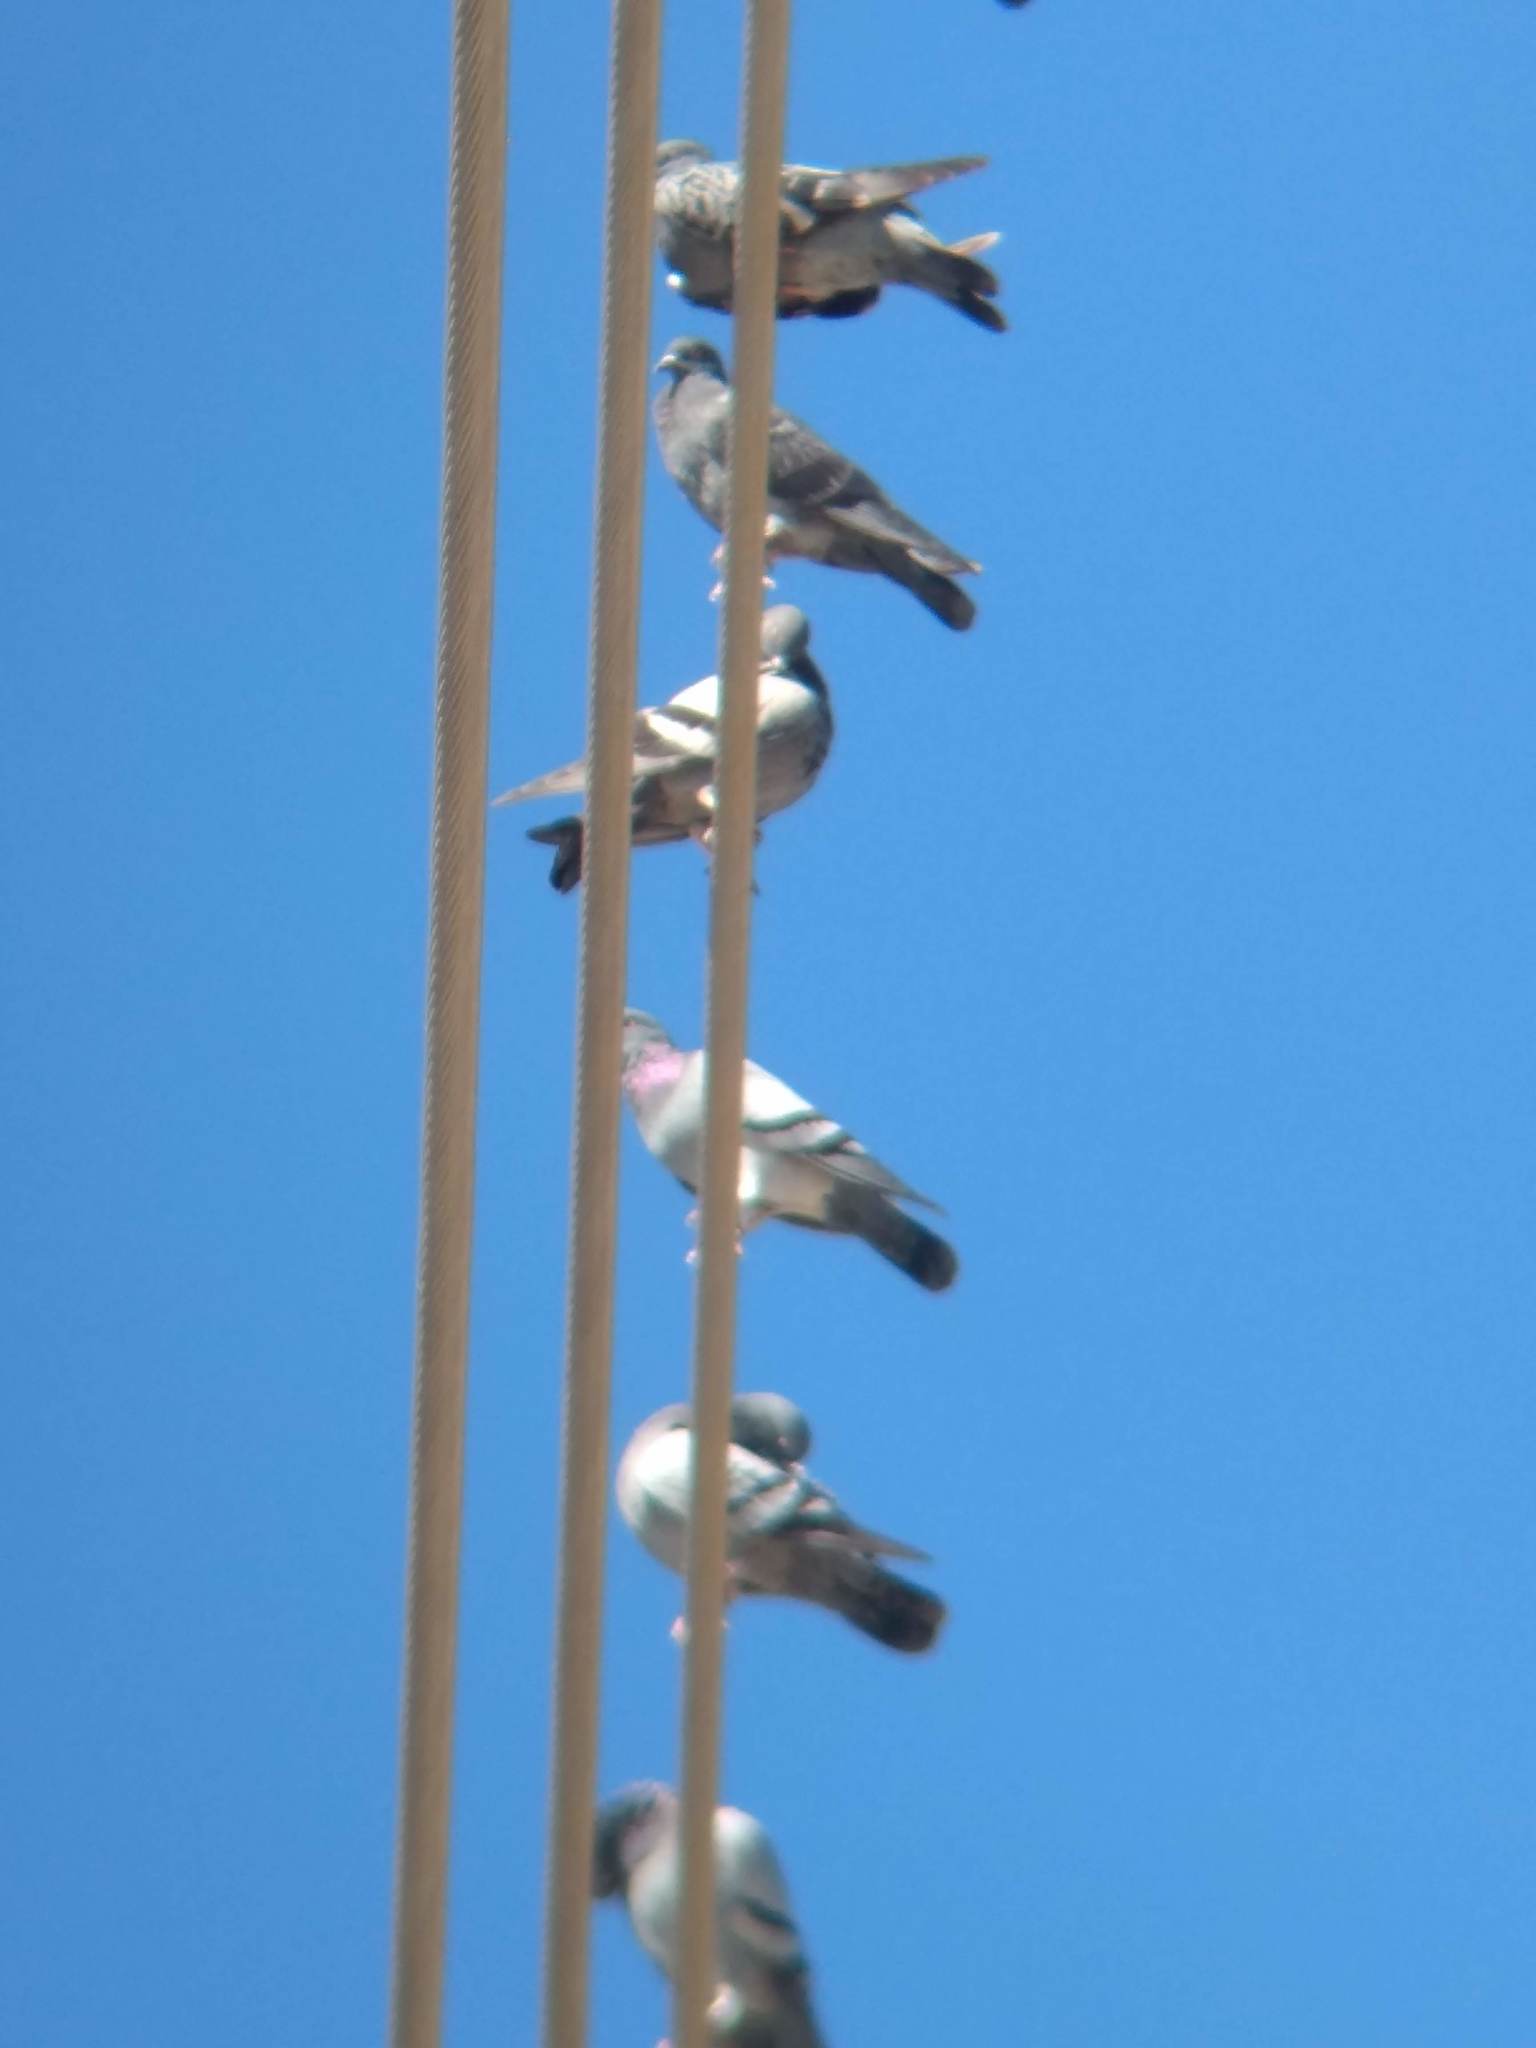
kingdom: Animalia
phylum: Chordata
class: Aves
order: Columbiformes
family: Columbidae
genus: Columba
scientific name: Columba livia
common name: Rock pigeon
